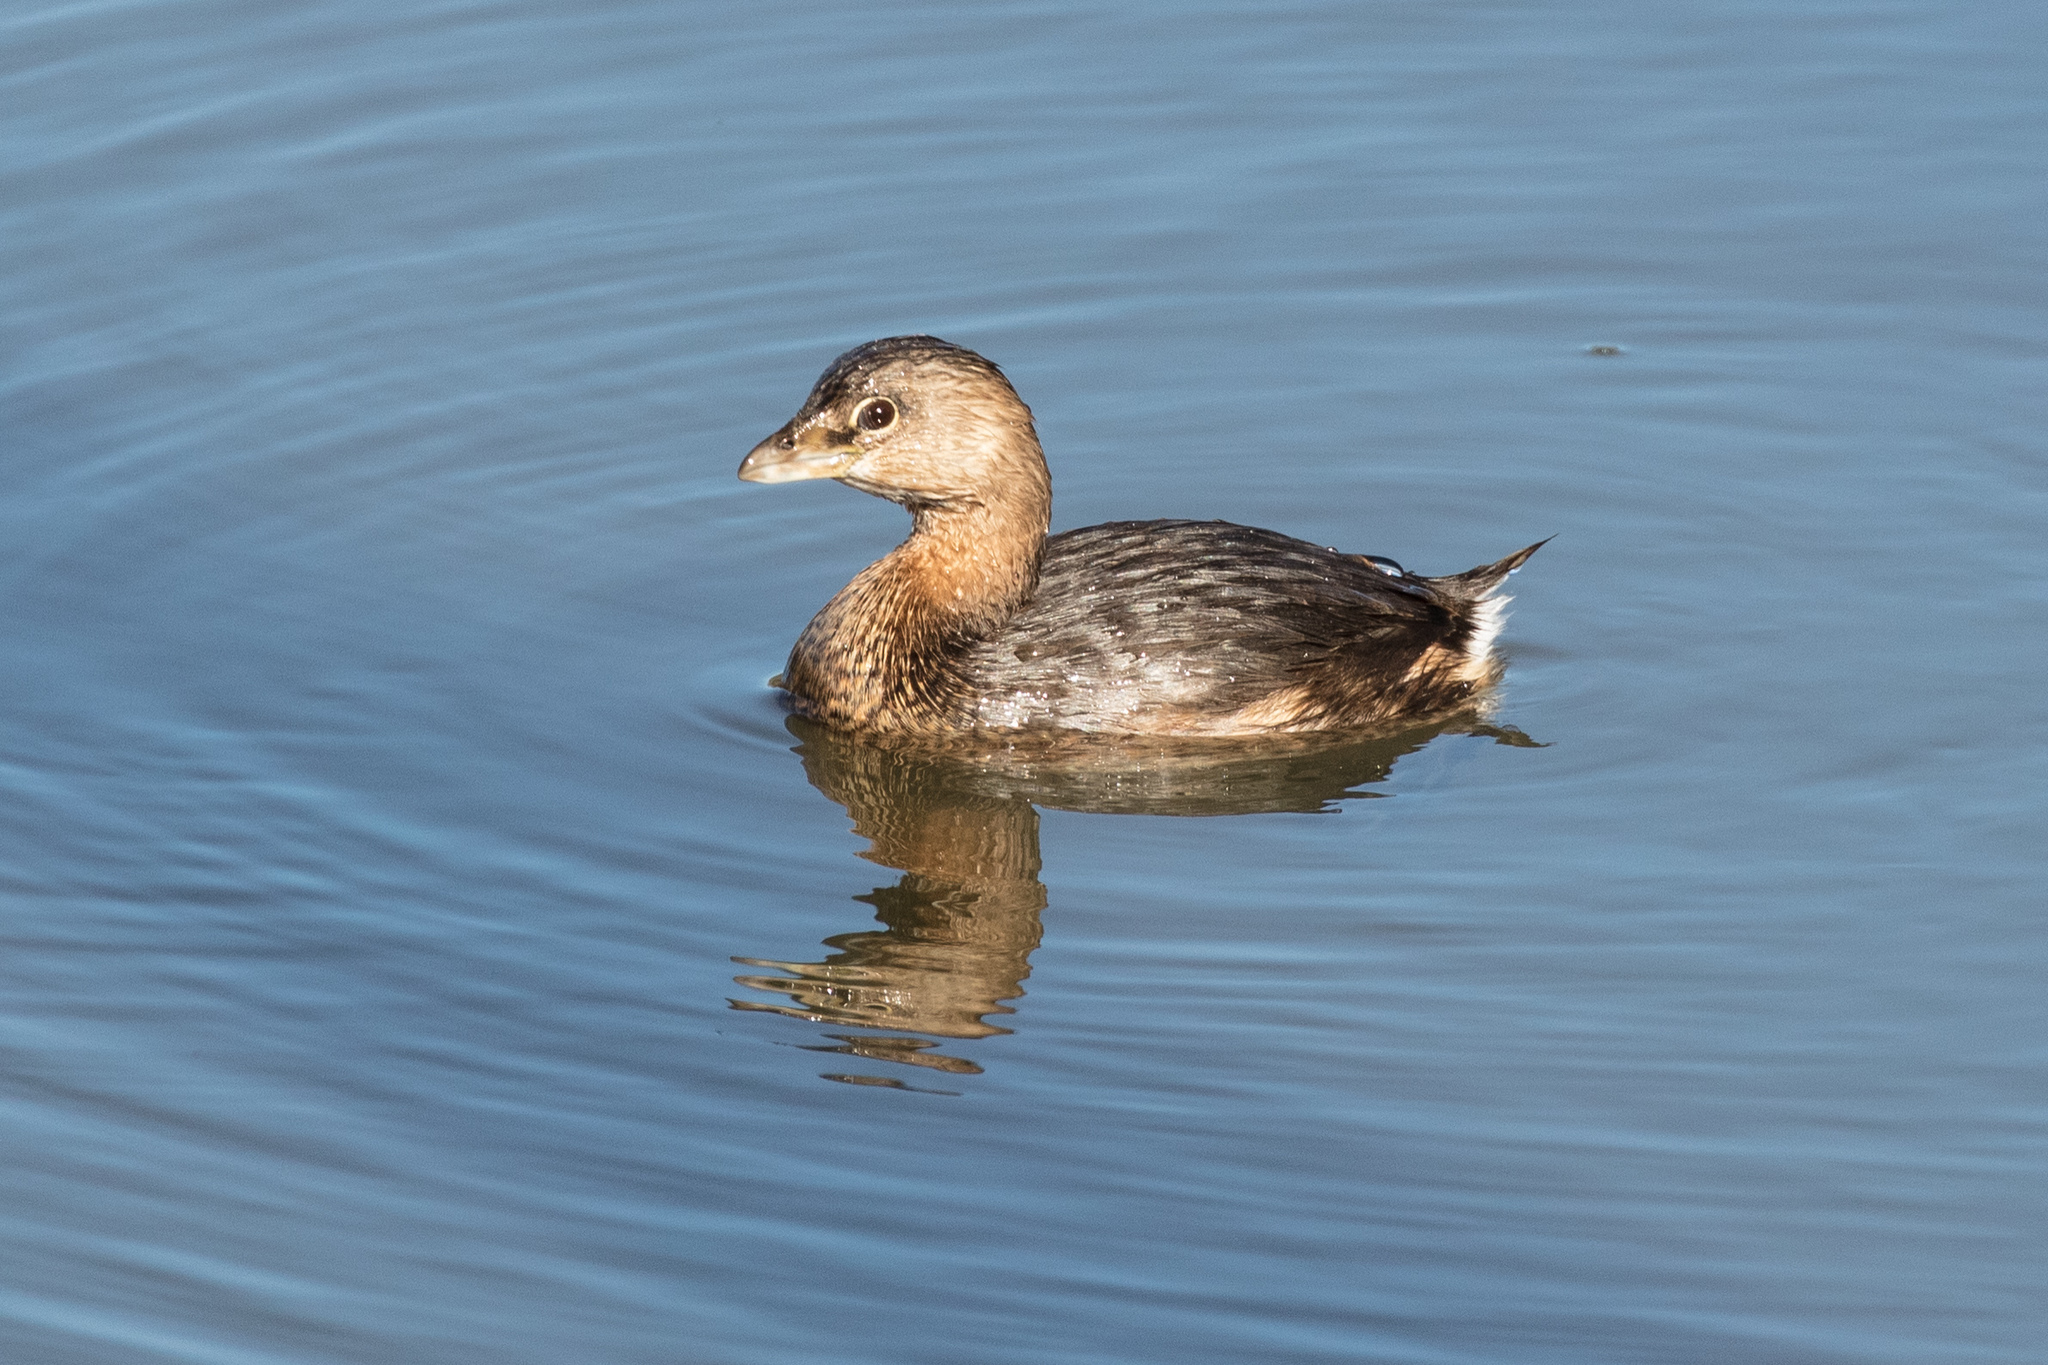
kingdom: Animalia
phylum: Chordata
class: Aves
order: Podicipediformes
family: Podicipedidae
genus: Podilymbus
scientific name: Podilymbus podiceps
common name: Pied-billed grebe
